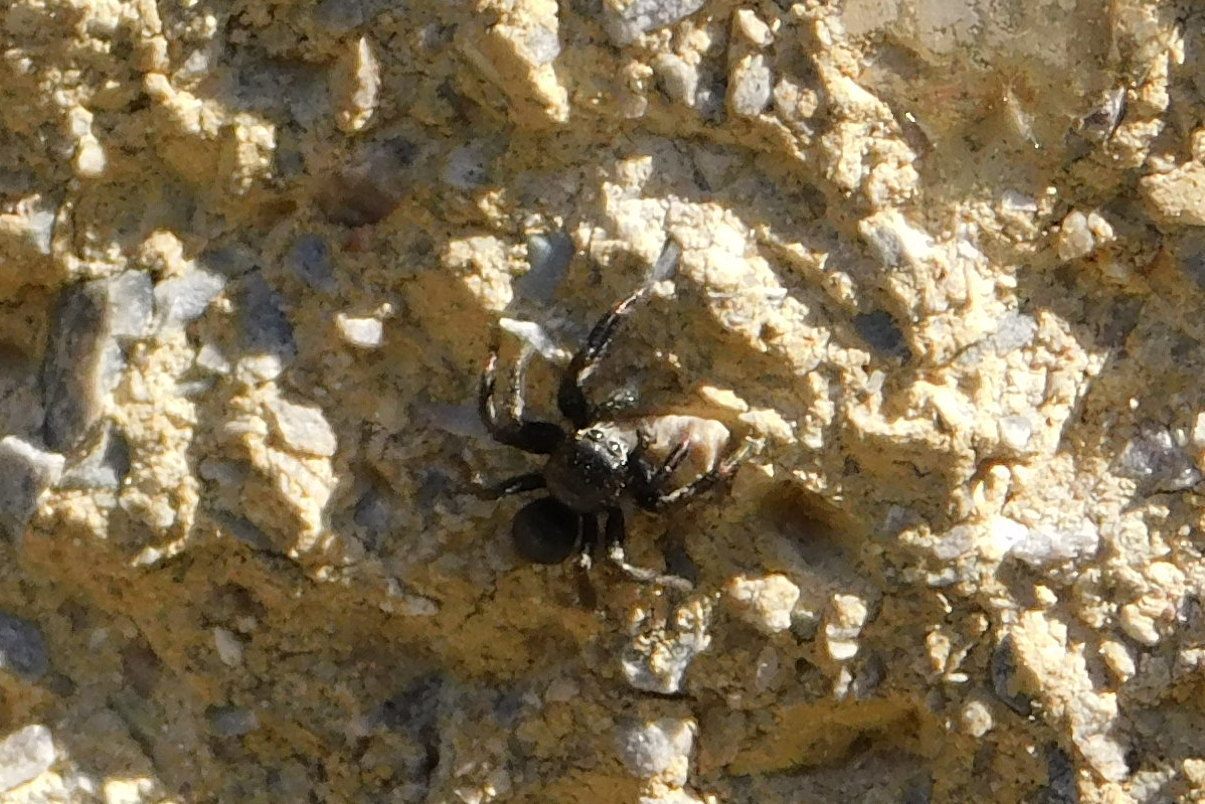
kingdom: Animalia
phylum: Arthropoda
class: Arachnida
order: Araneae
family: Salticidae
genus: Evarcha
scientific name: Evarcha arcuata
